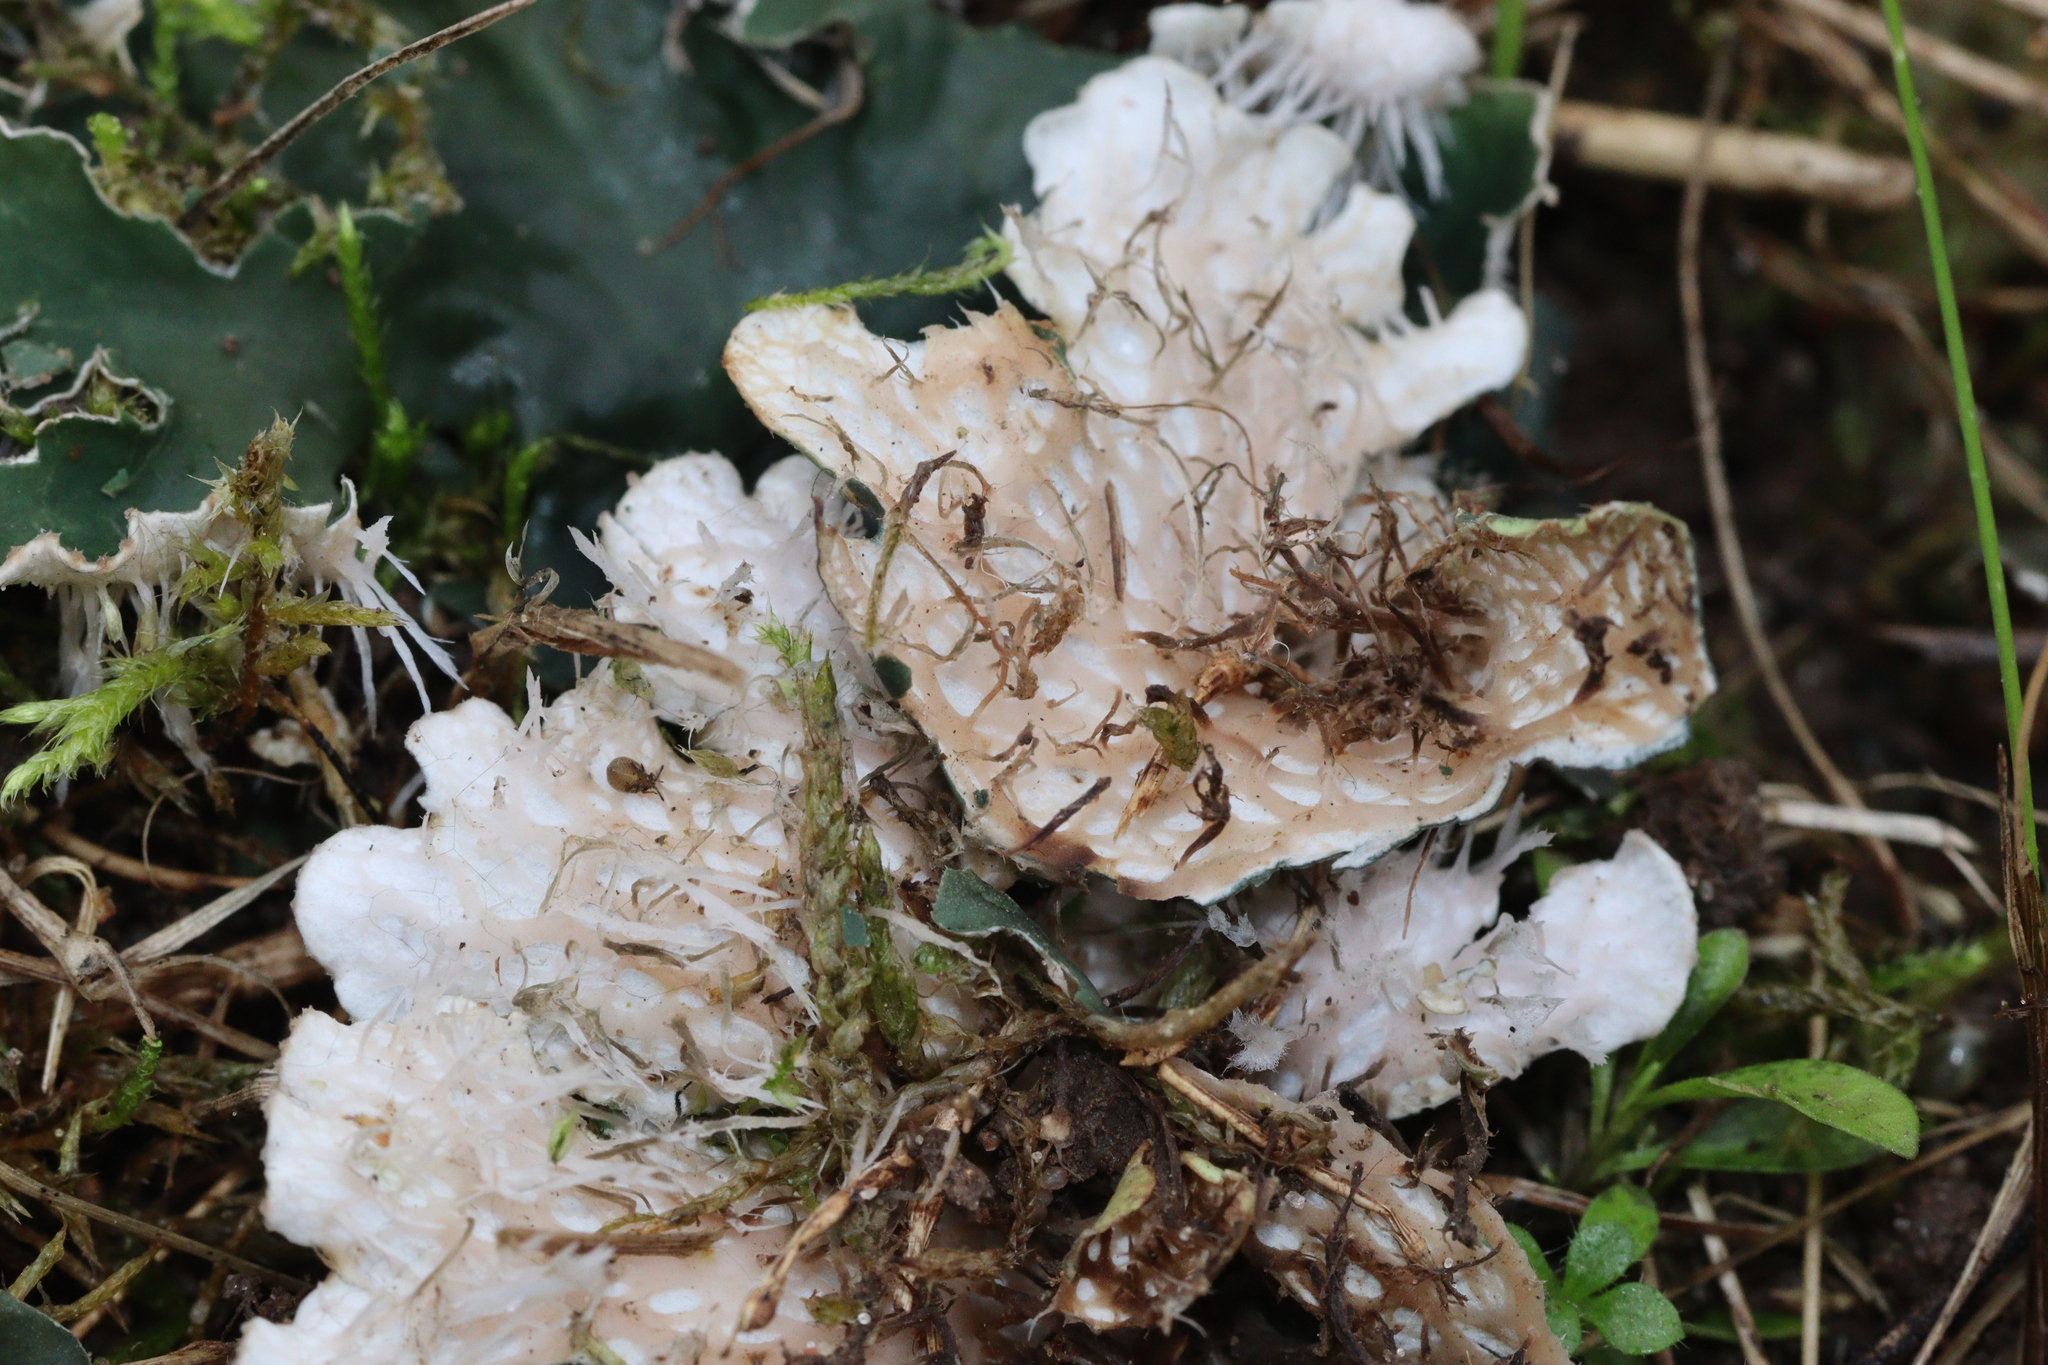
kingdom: Fungi
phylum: Ascomycota
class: Lecanoromycetes
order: Peltigerales
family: Peltigeraceae
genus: Peltigera
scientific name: Peltigera ponojensis
